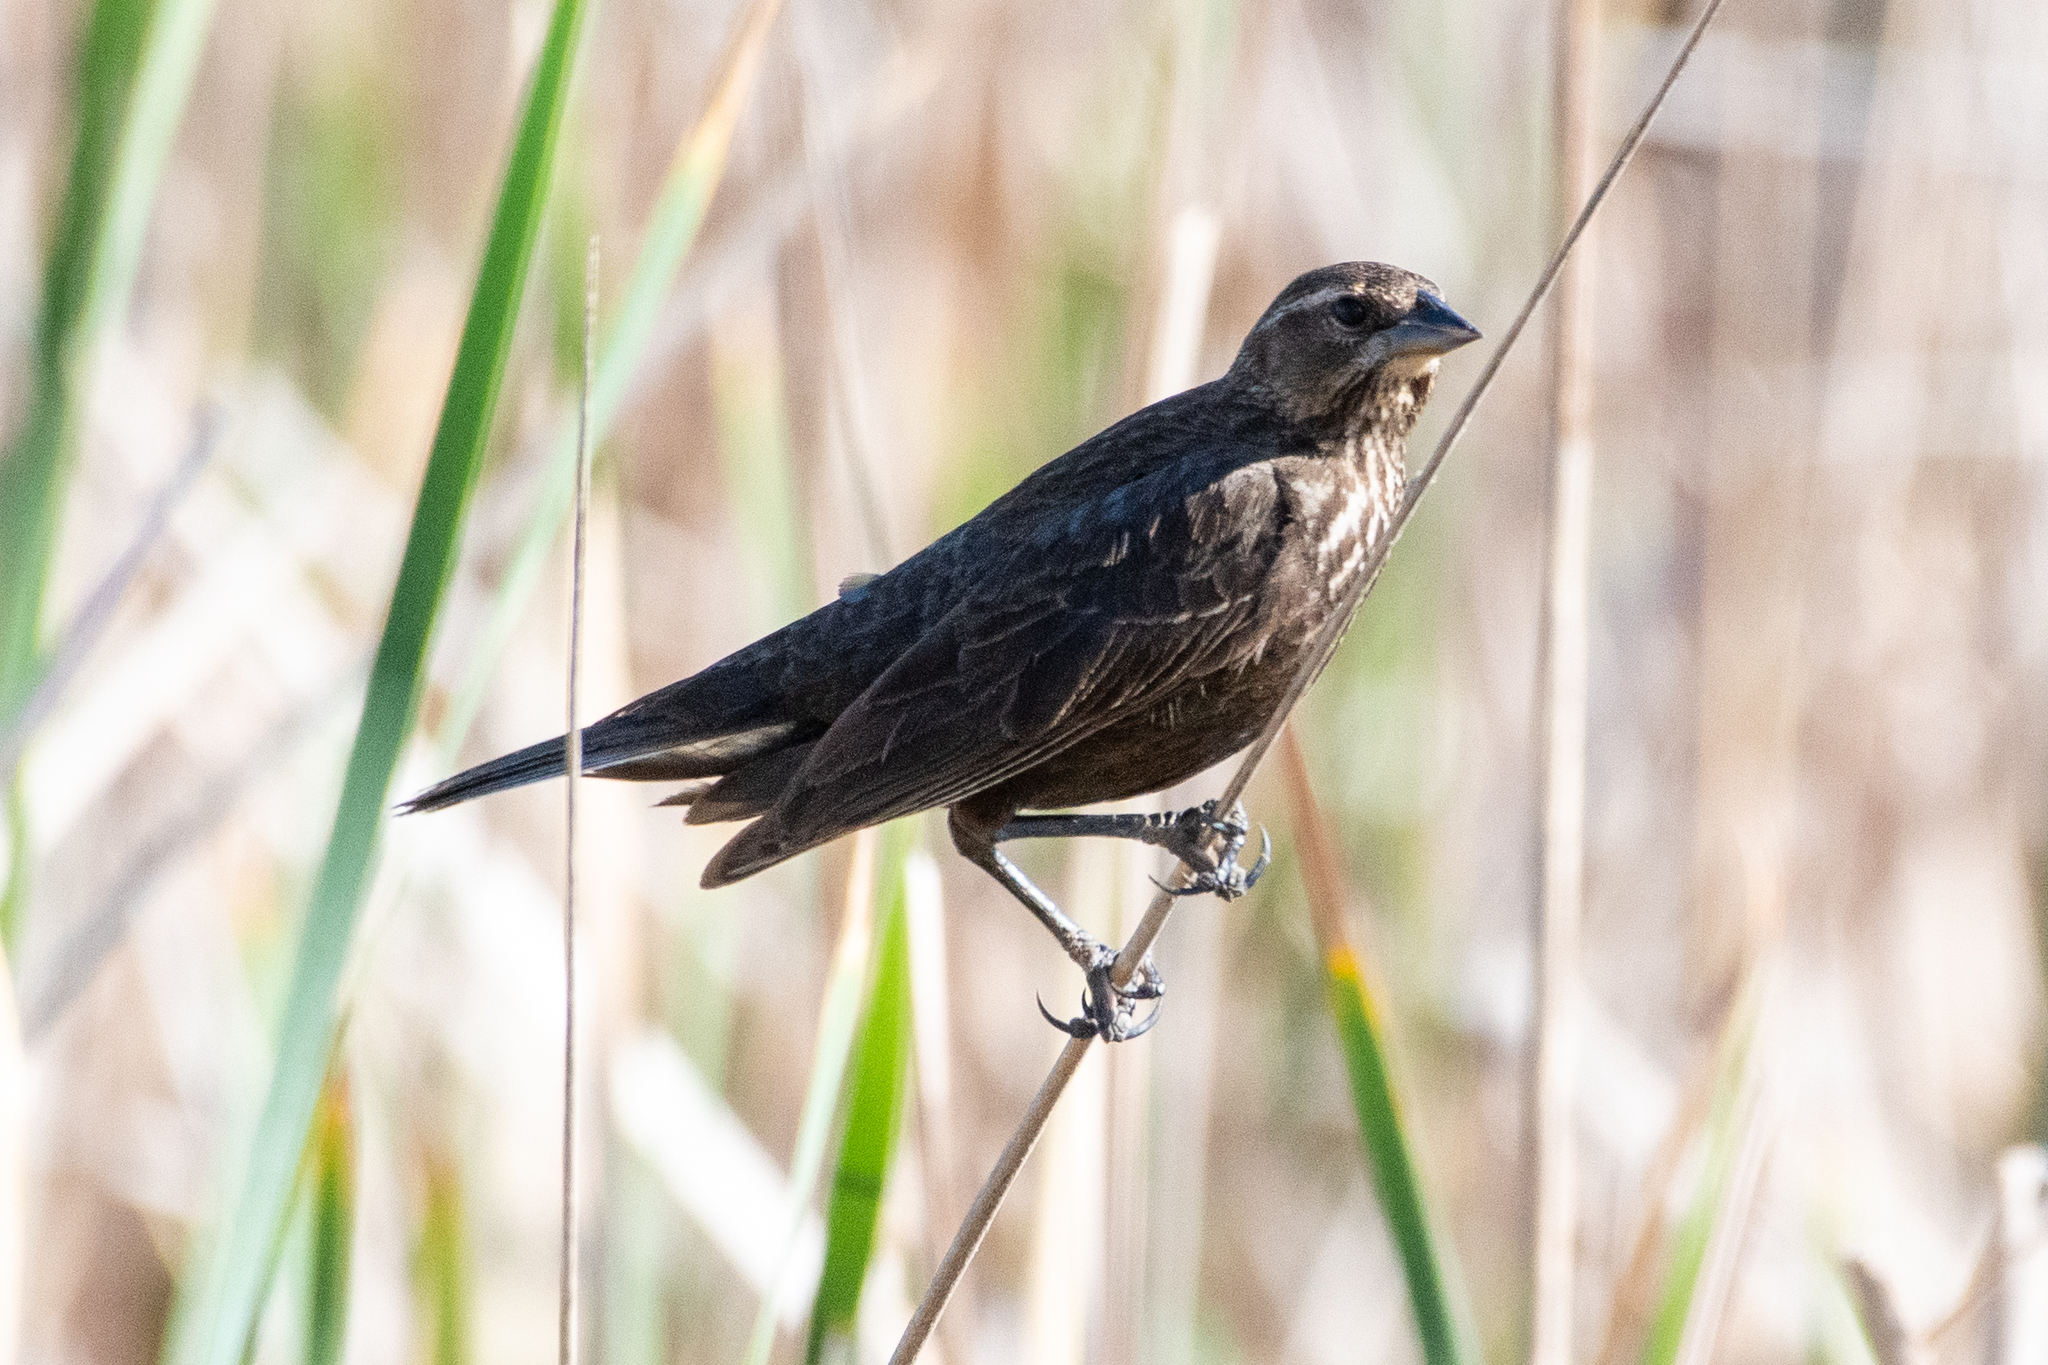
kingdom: Animalia
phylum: Chordata
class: Aves
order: Passeriformes
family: Icteridae
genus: Agelaius
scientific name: Agelaius phoeniceus
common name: Red-winged blackbird
